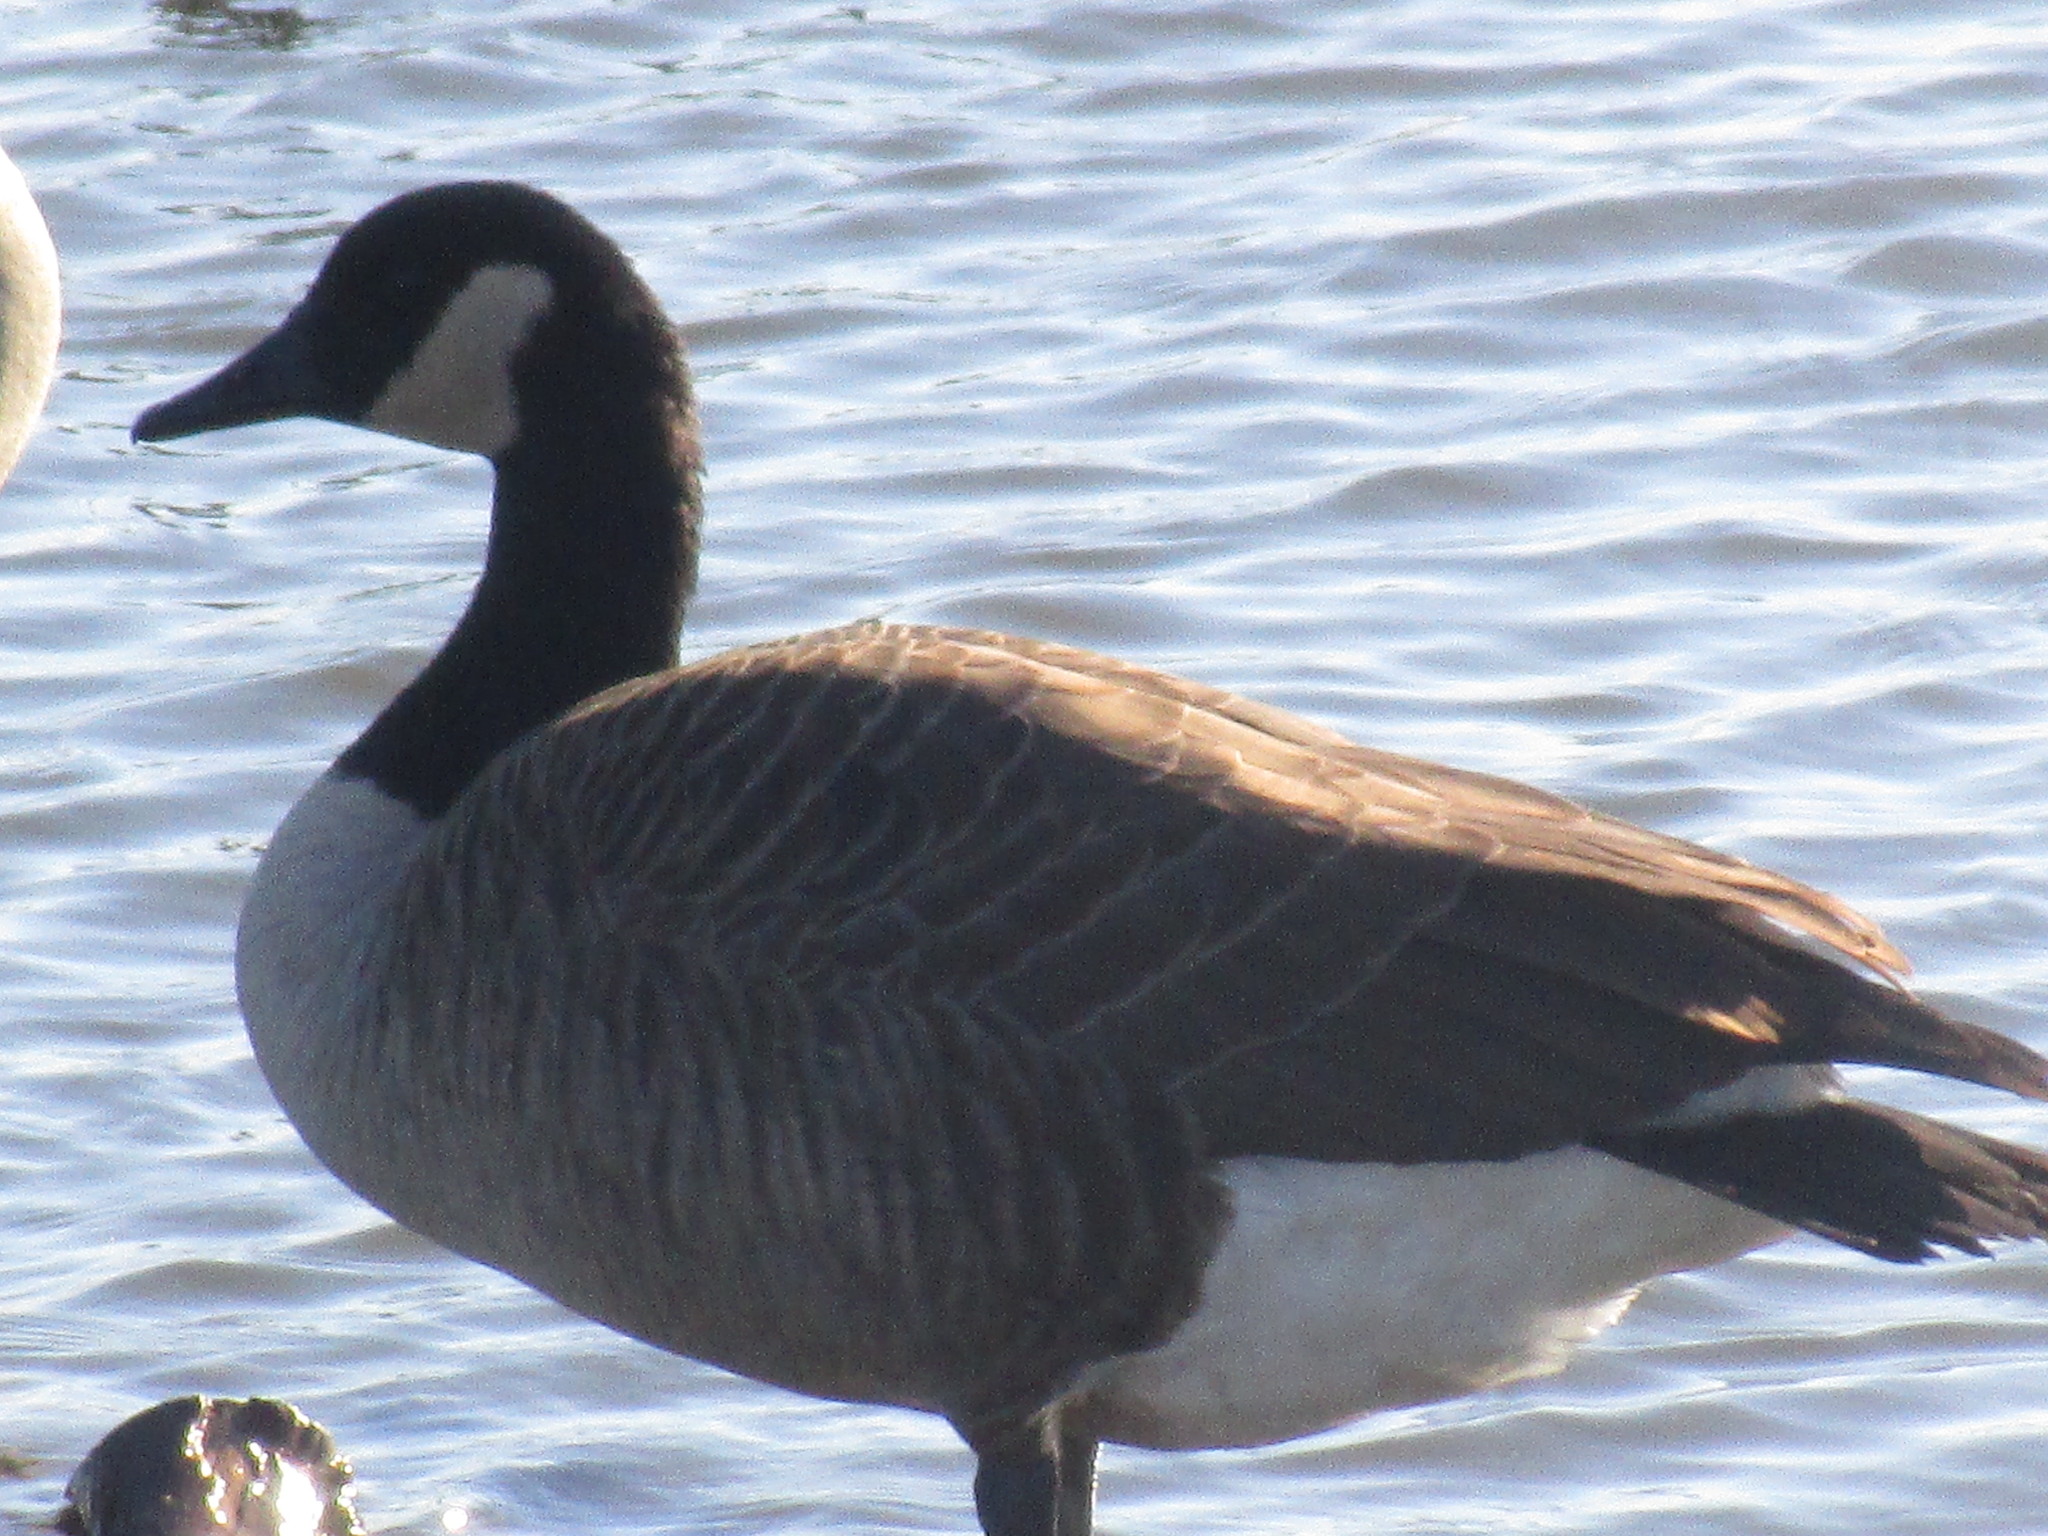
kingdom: Animalia
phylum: Chordata
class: Aves
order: Anseriformes
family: Anatidae
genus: Branta
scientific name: Branta canadensis
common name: Canada goose
